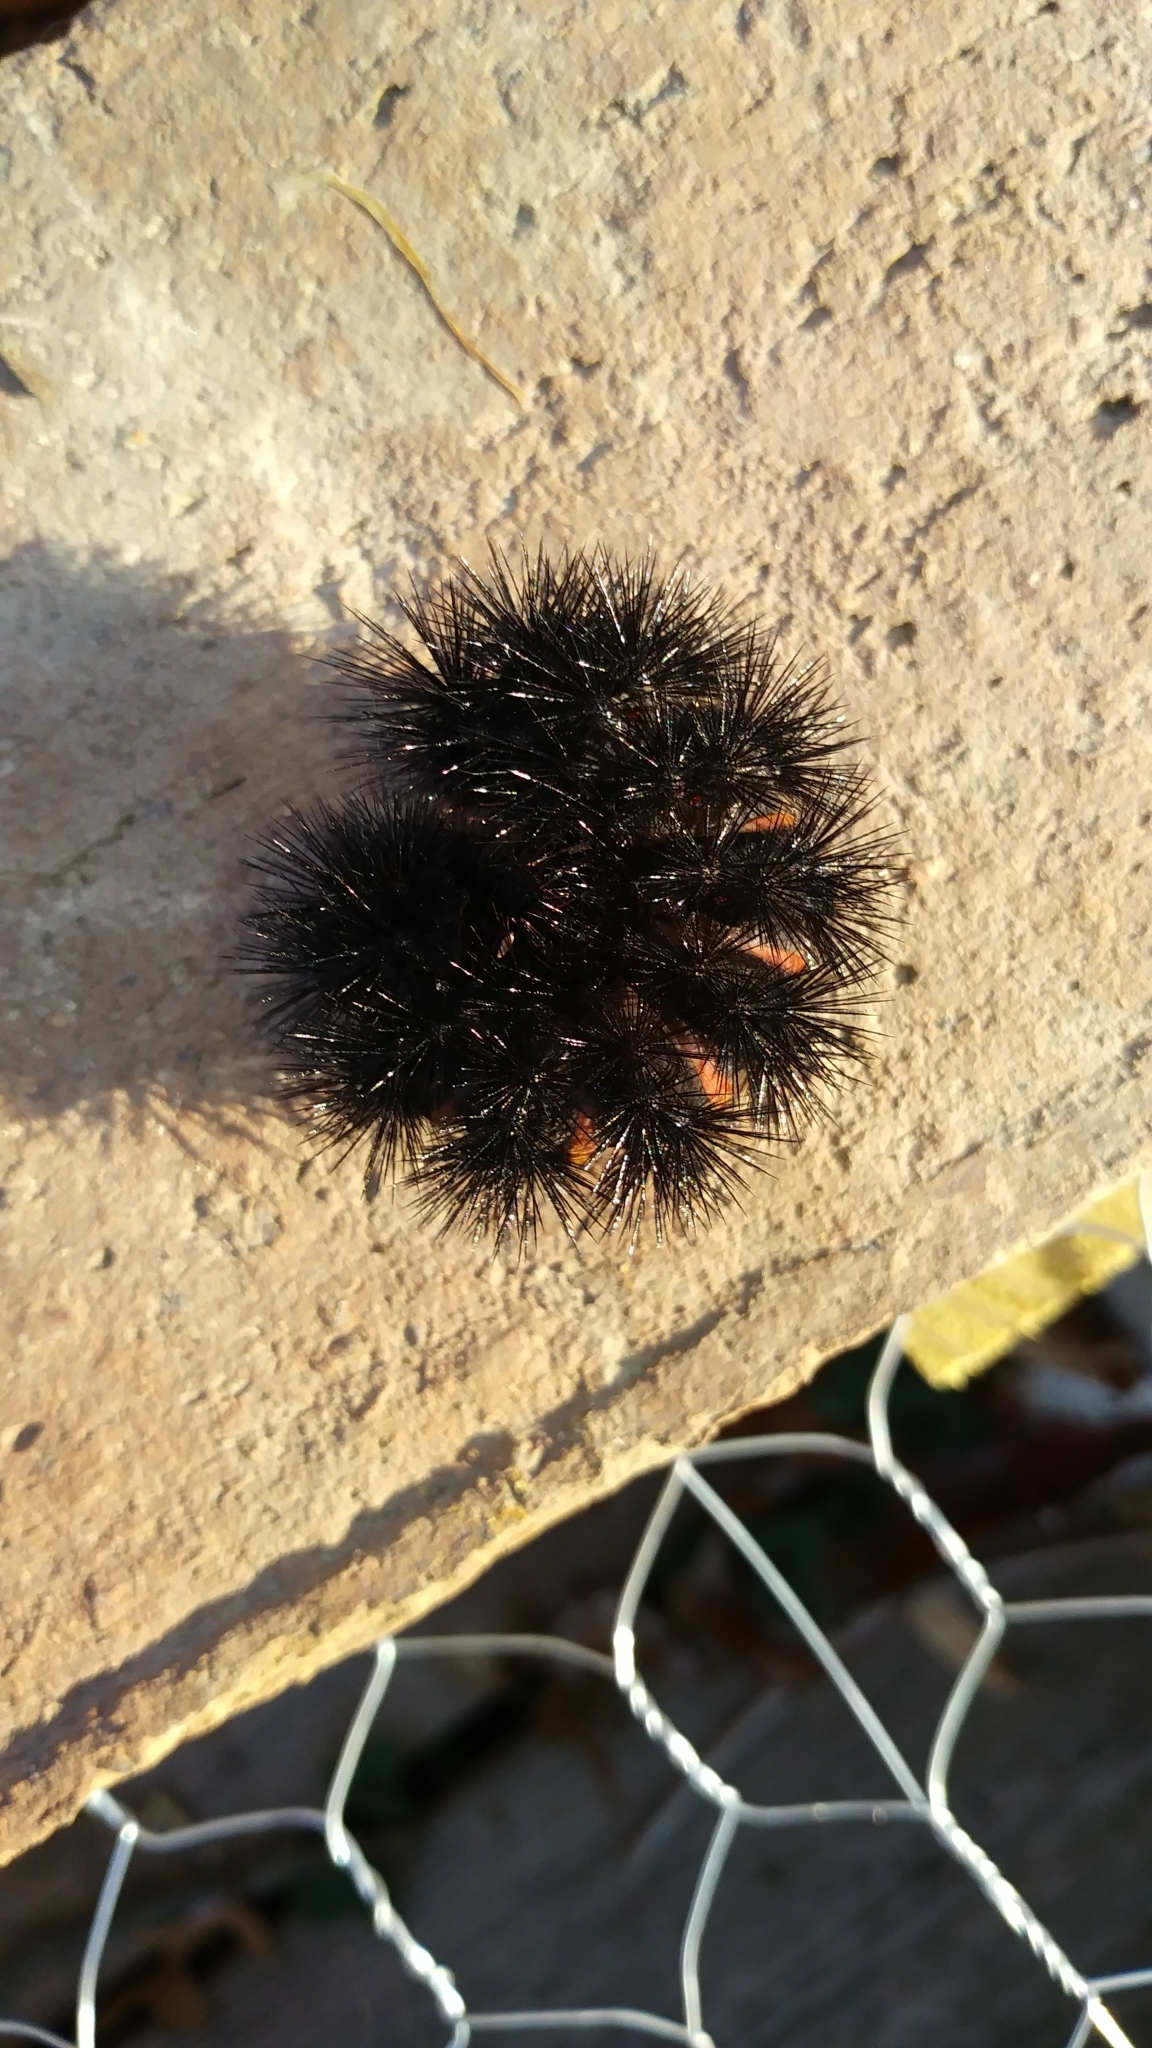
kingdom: Animalia
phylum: Arthropoda
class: Insecta
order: Lepidoptera
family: Erebidae
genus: Hypercompe
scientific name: Hypercompe scribonia
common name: Giant leopard moth
